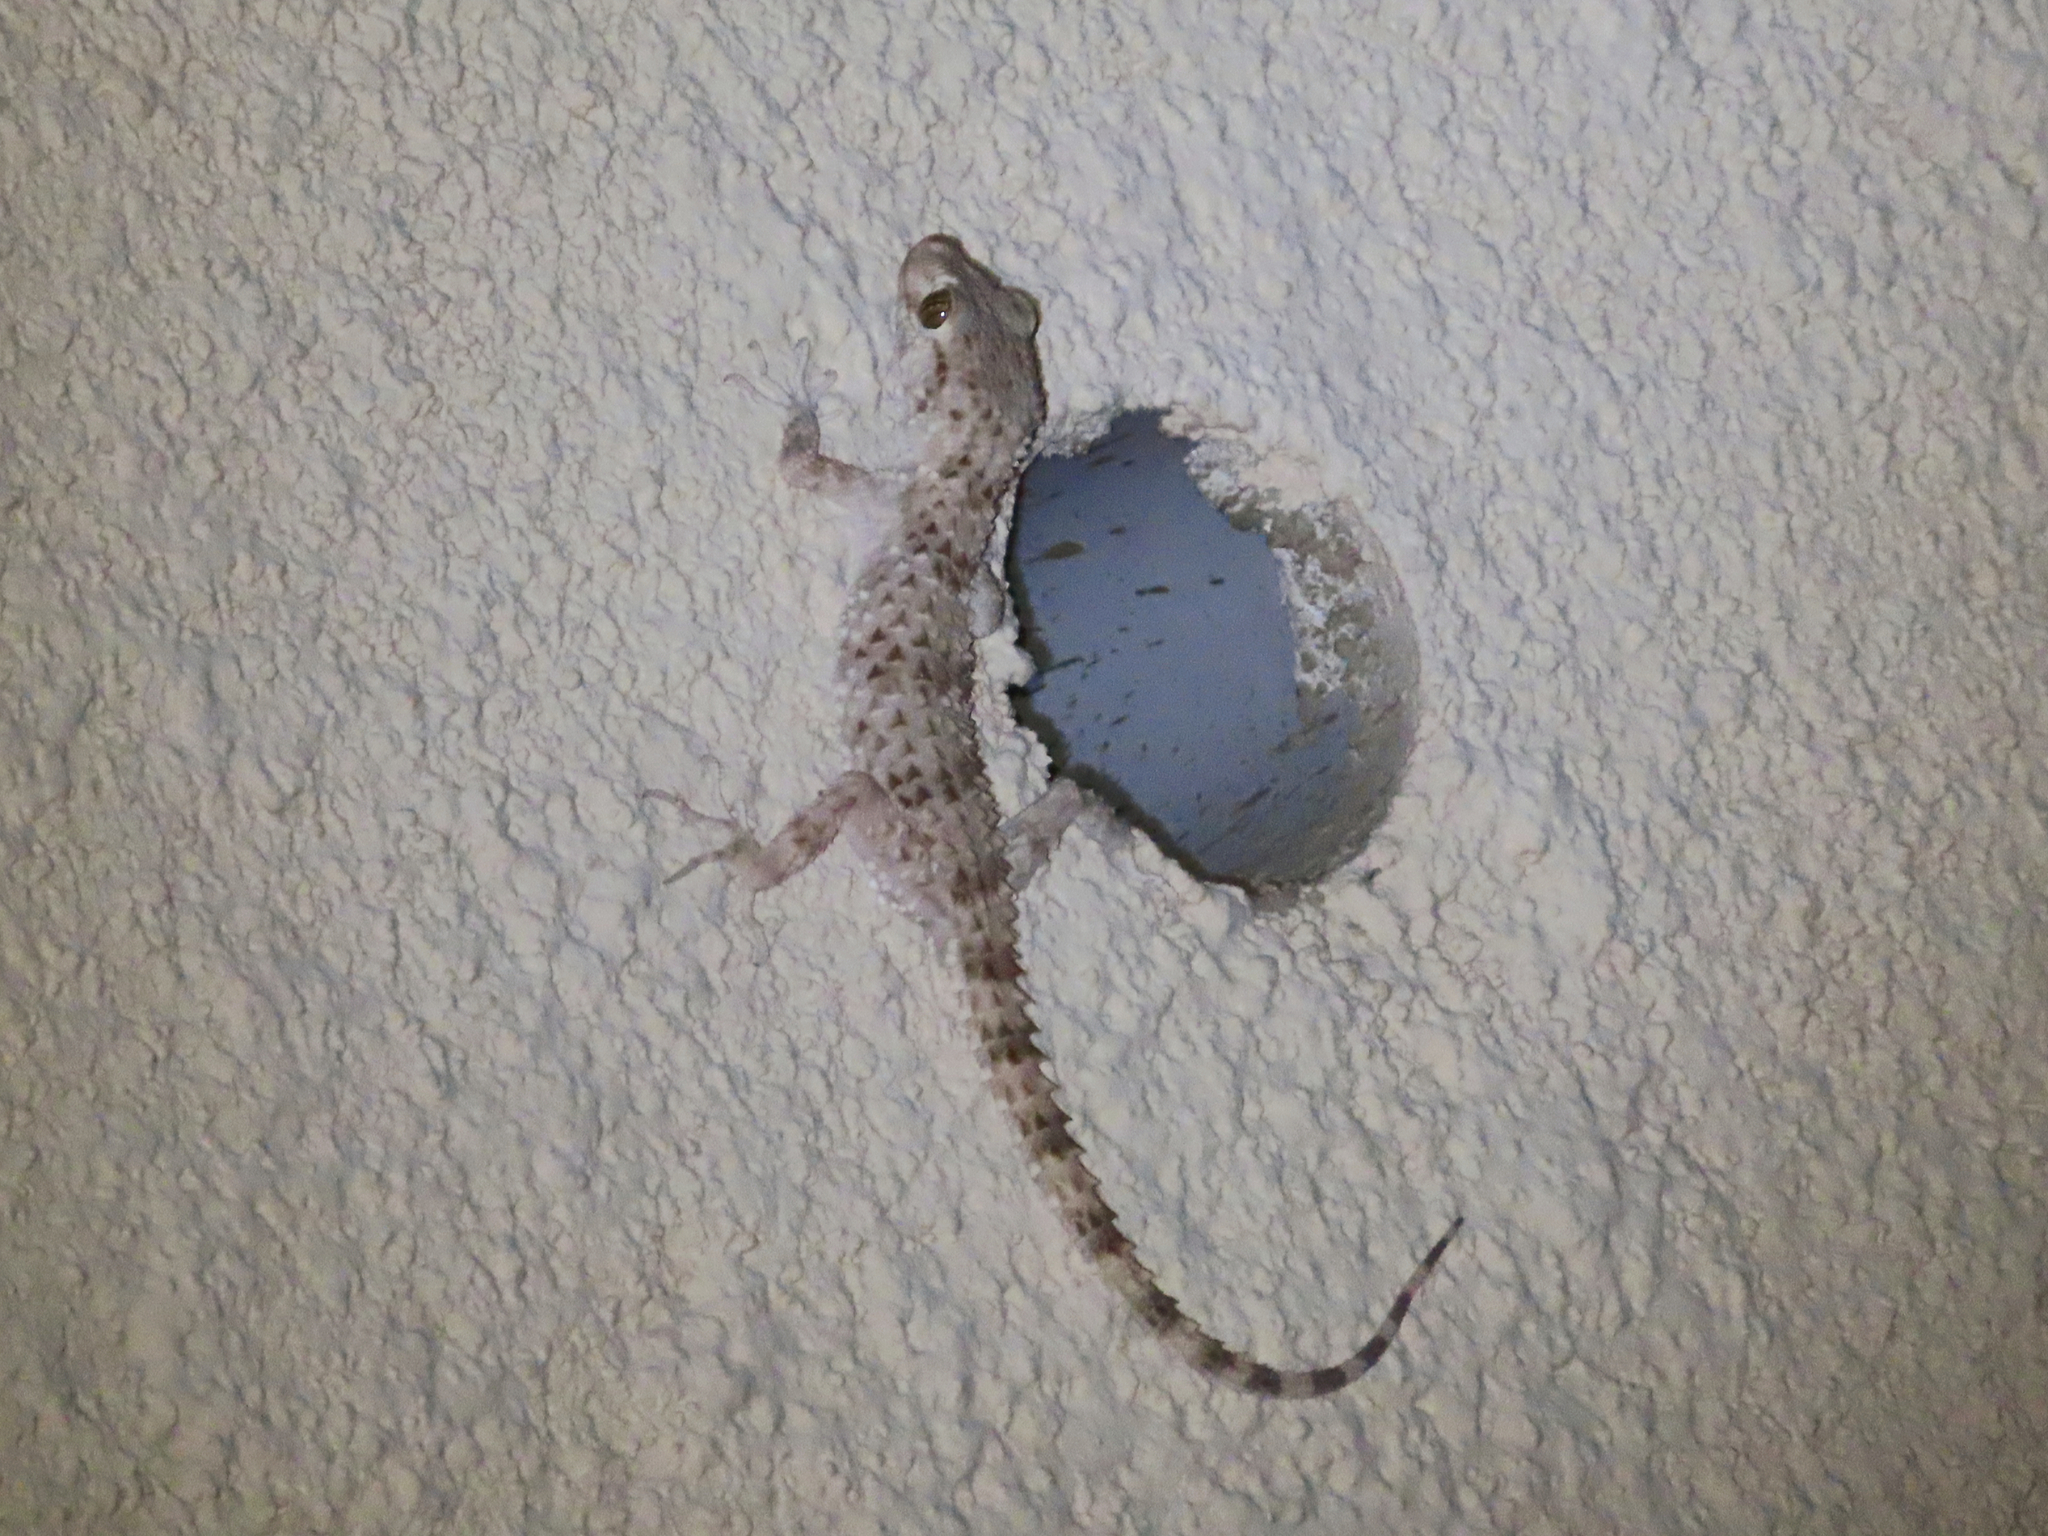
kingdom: Animalia
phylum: Chordata
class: Squamata
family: Gekkonidae
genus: Tenuidactylus
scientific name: Tenuidactylus caspius
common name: Caspian bent-toed gecko
